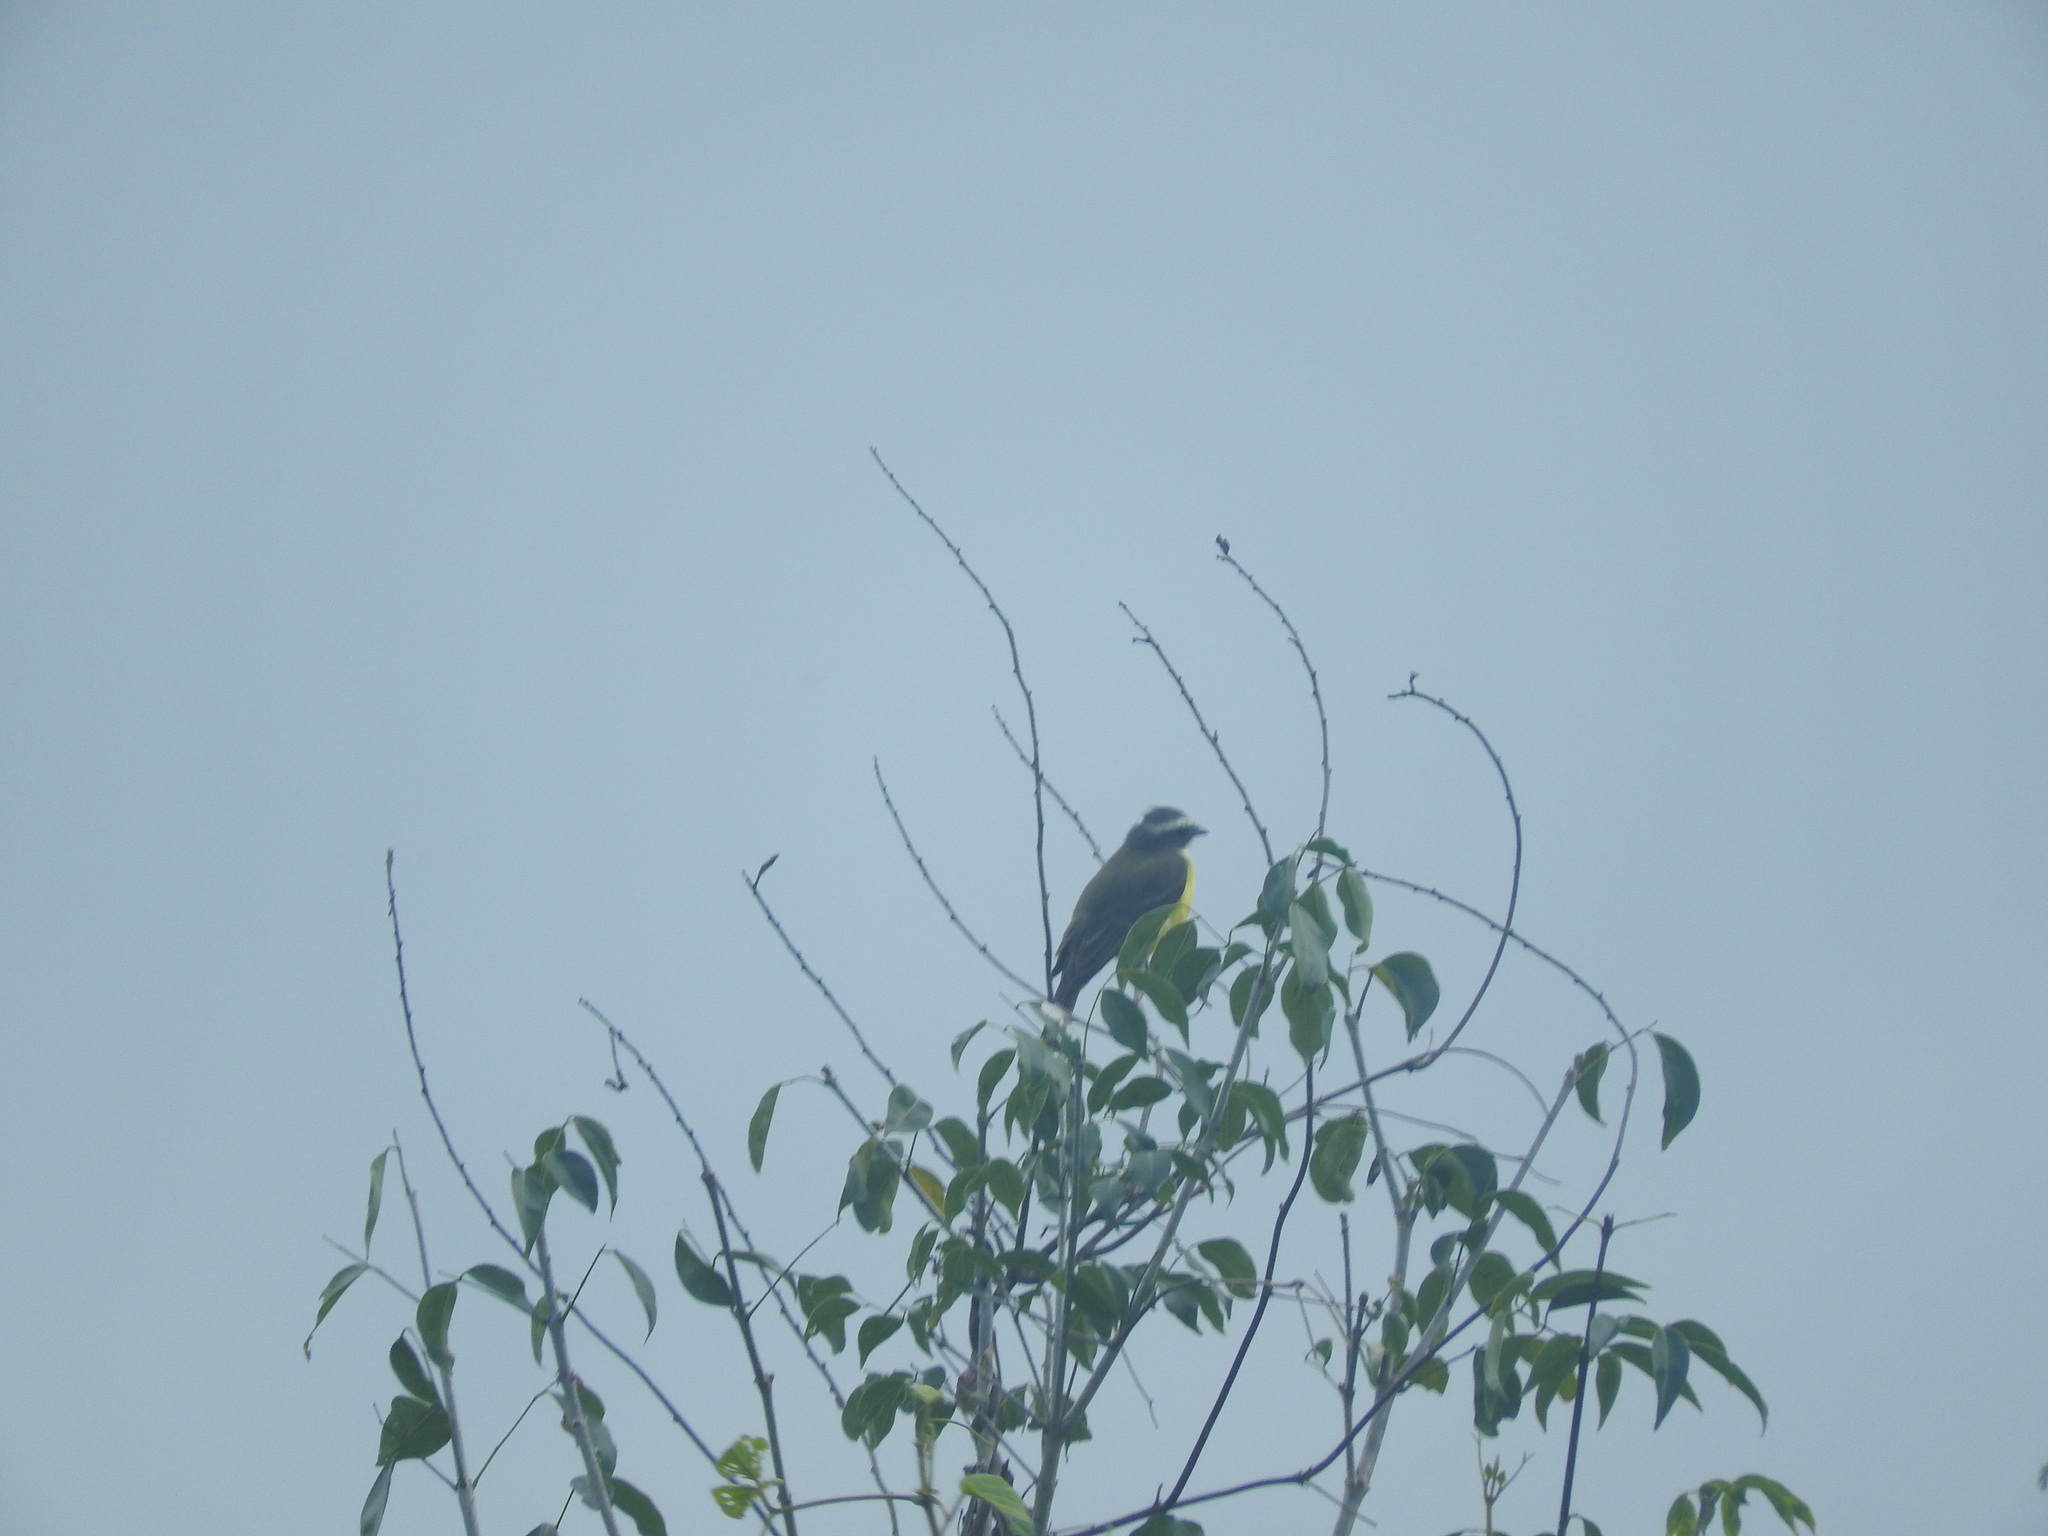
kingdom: Animalia
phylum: Chordata
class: Aves
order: Passeriformes
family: Tyrannidae
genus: Myiozetetes
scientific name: Myiozetetes similis
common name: Social flycatcher
